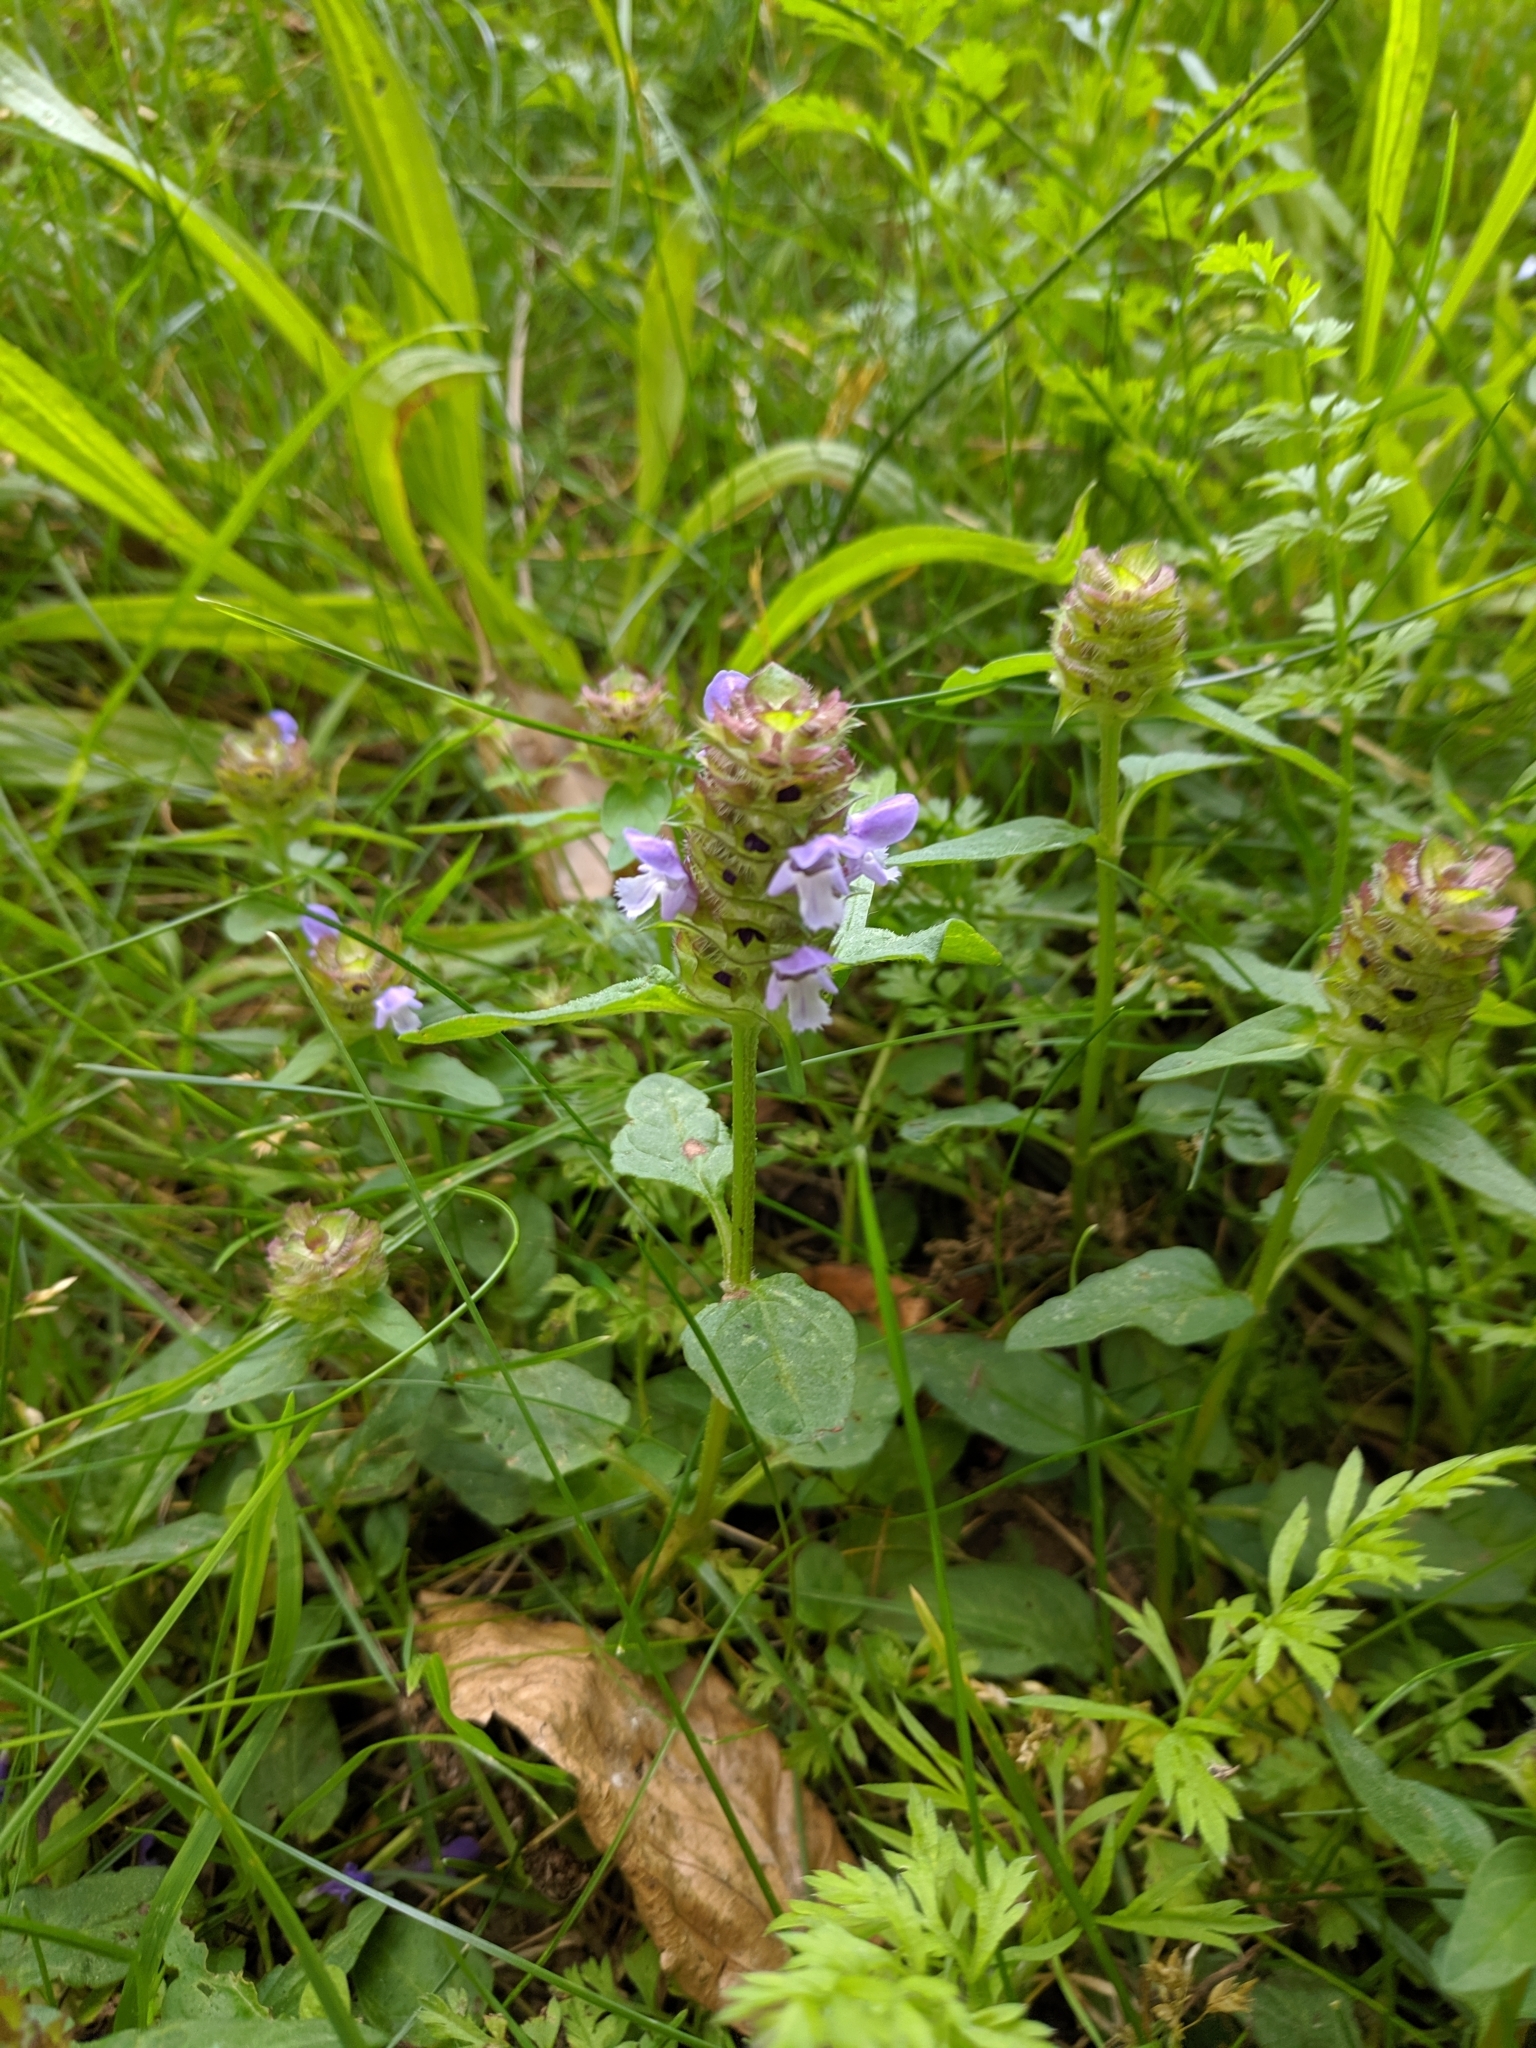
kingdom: Plantae
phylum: Tracheophyta
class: Magnoliopsida
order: Lamiales
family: Lamiaceae
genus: Prunella
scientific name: Prunella vulgaris
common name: Heal-all
